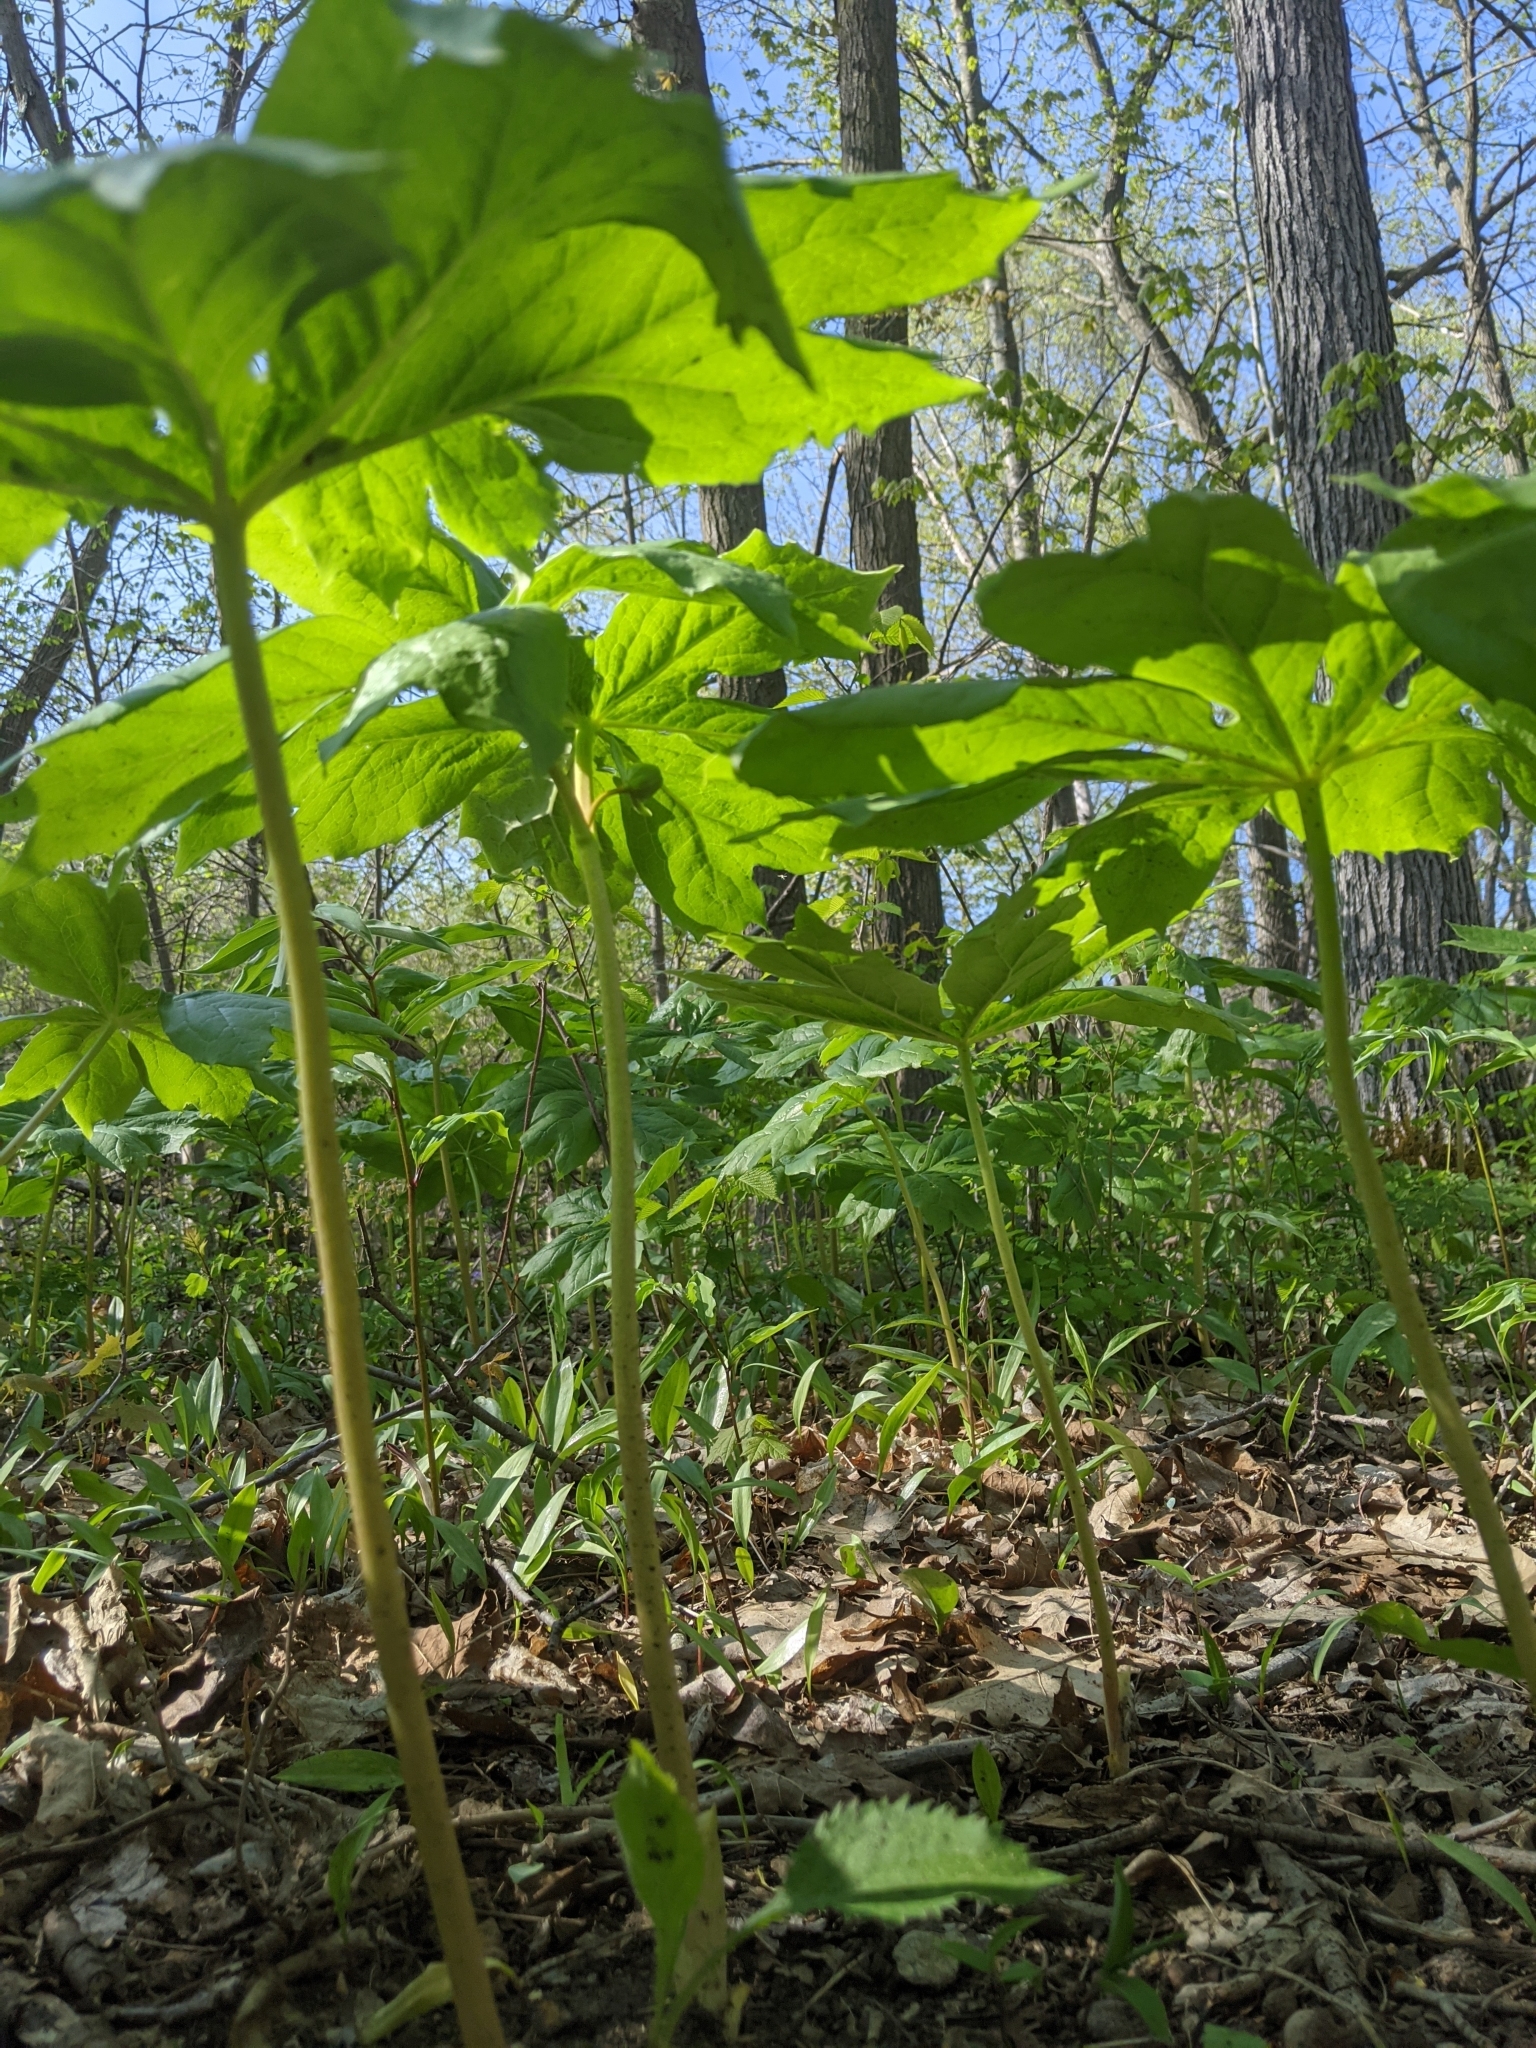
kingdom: Plantae
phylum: Tracheophyta
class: Magnoliopsida
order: Ranunculales
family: Berberidaceae
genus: Podophyllum
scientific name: Podophyllum peltatum
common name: Wild mandrake
